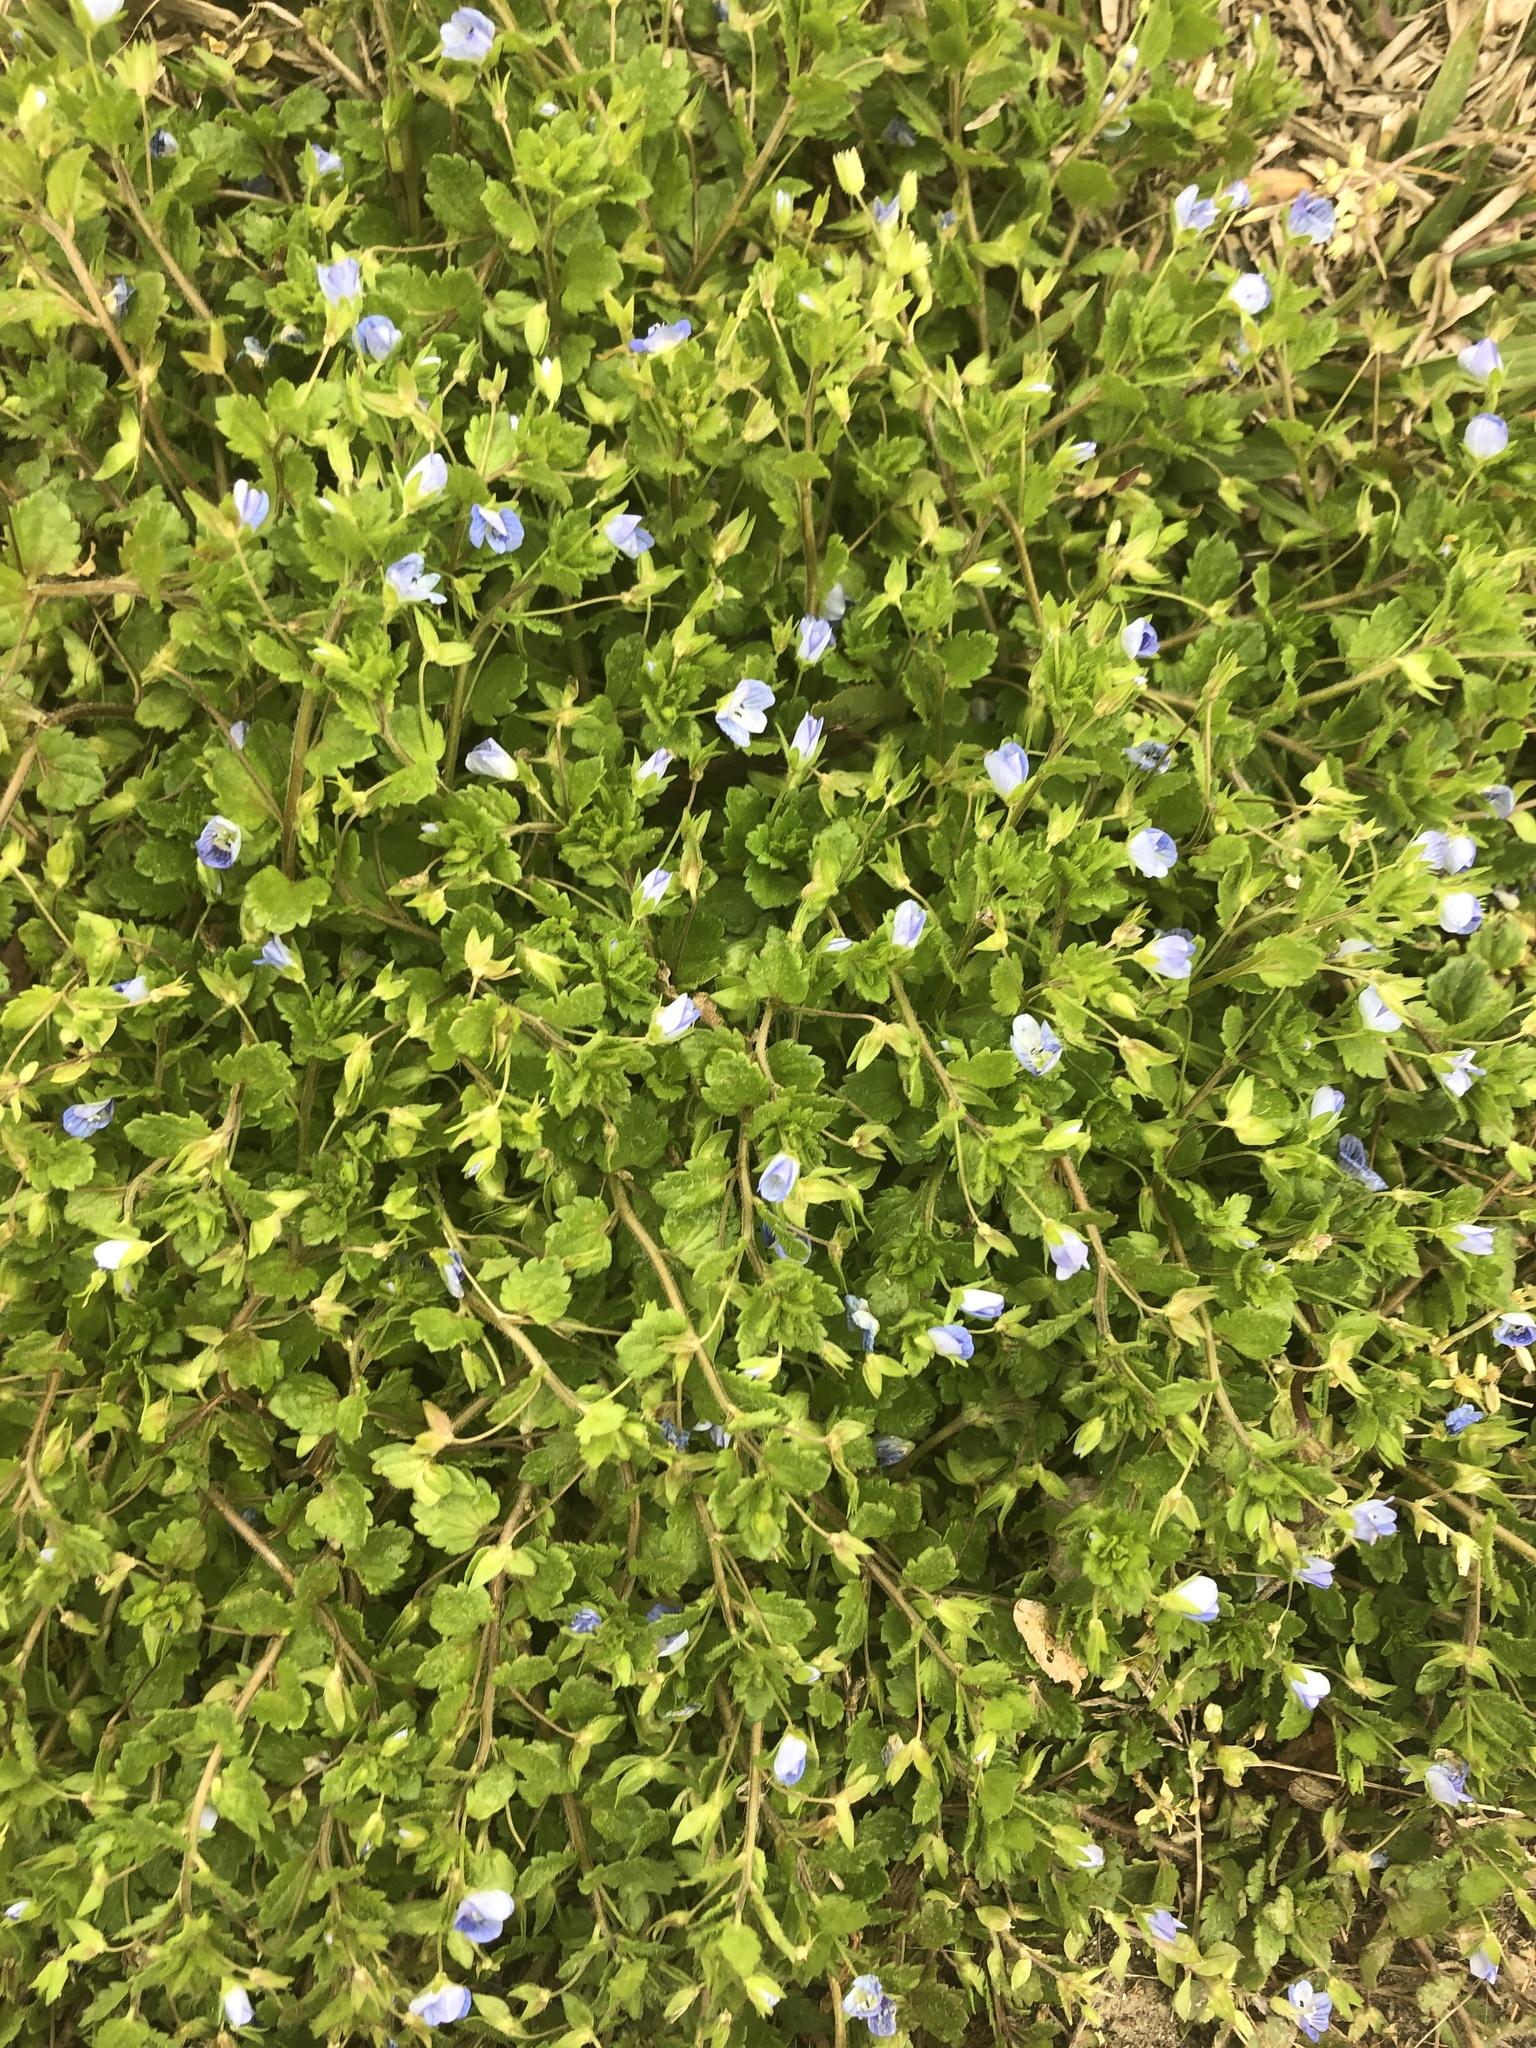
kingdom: Plantae
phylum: Tracheophyta
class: Magnoliopsida
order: Lamiales
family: Plantaginaceae
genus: Veronica
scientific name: Veronica persica
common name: Common field-speedwell
